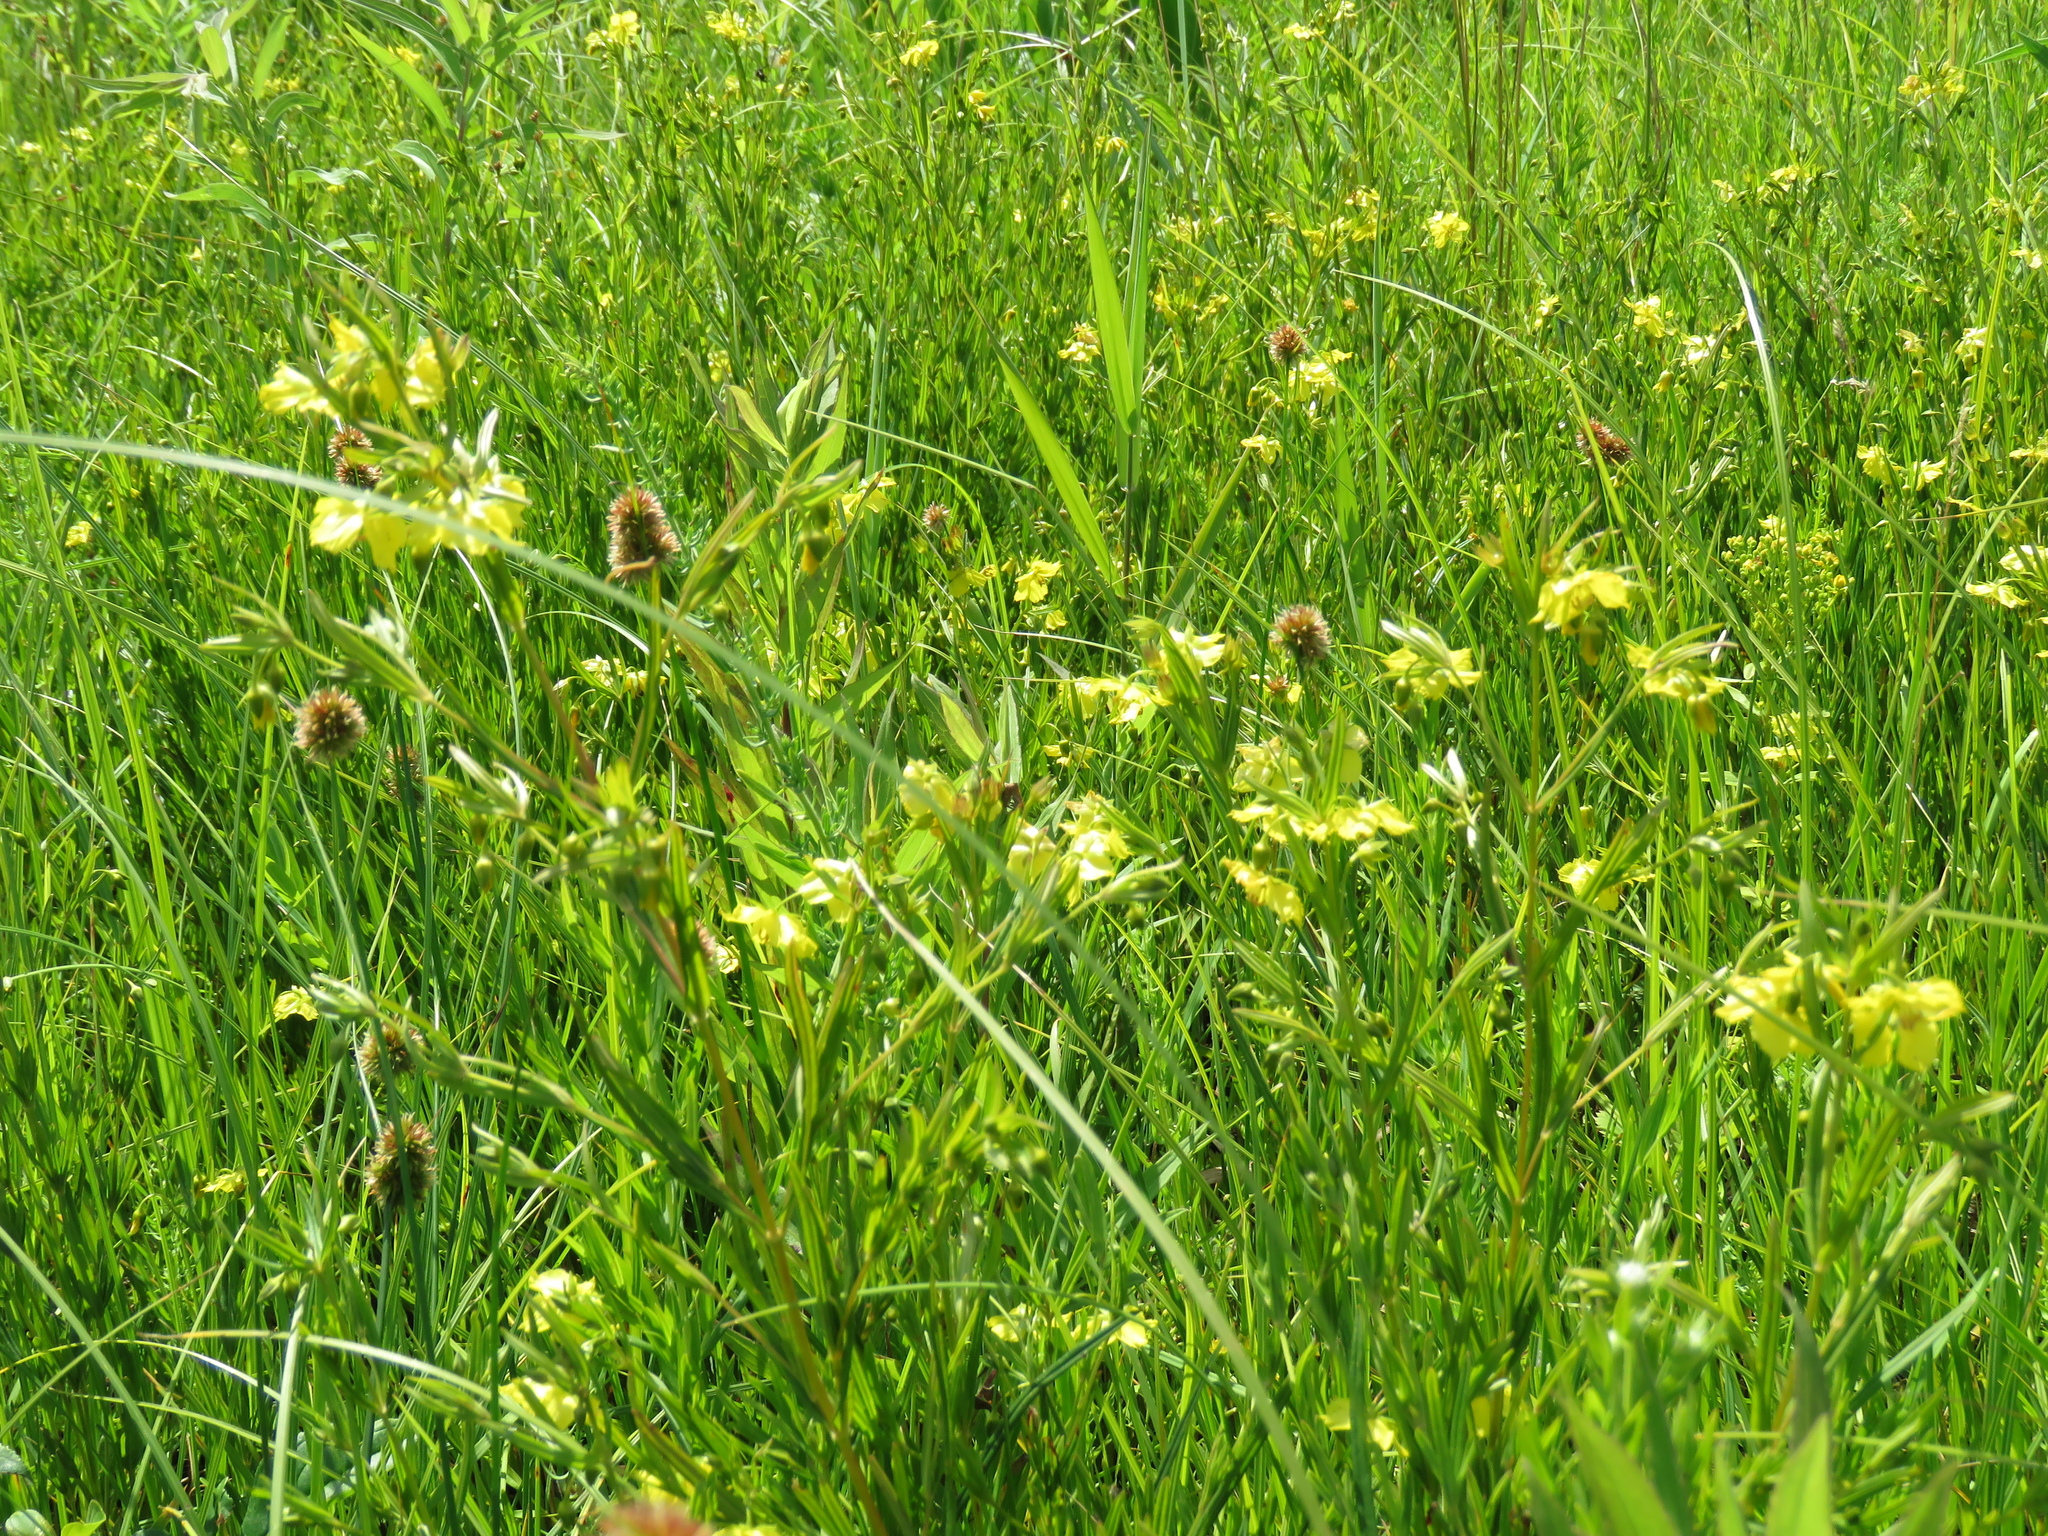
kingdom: Plantae
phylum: Tracheophyta
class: Magnoliopsida
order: Ericales
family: Primulaceae
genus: Lysimachia
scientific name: Lysimachia quadriflora
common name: Four-flowered loosestrife
